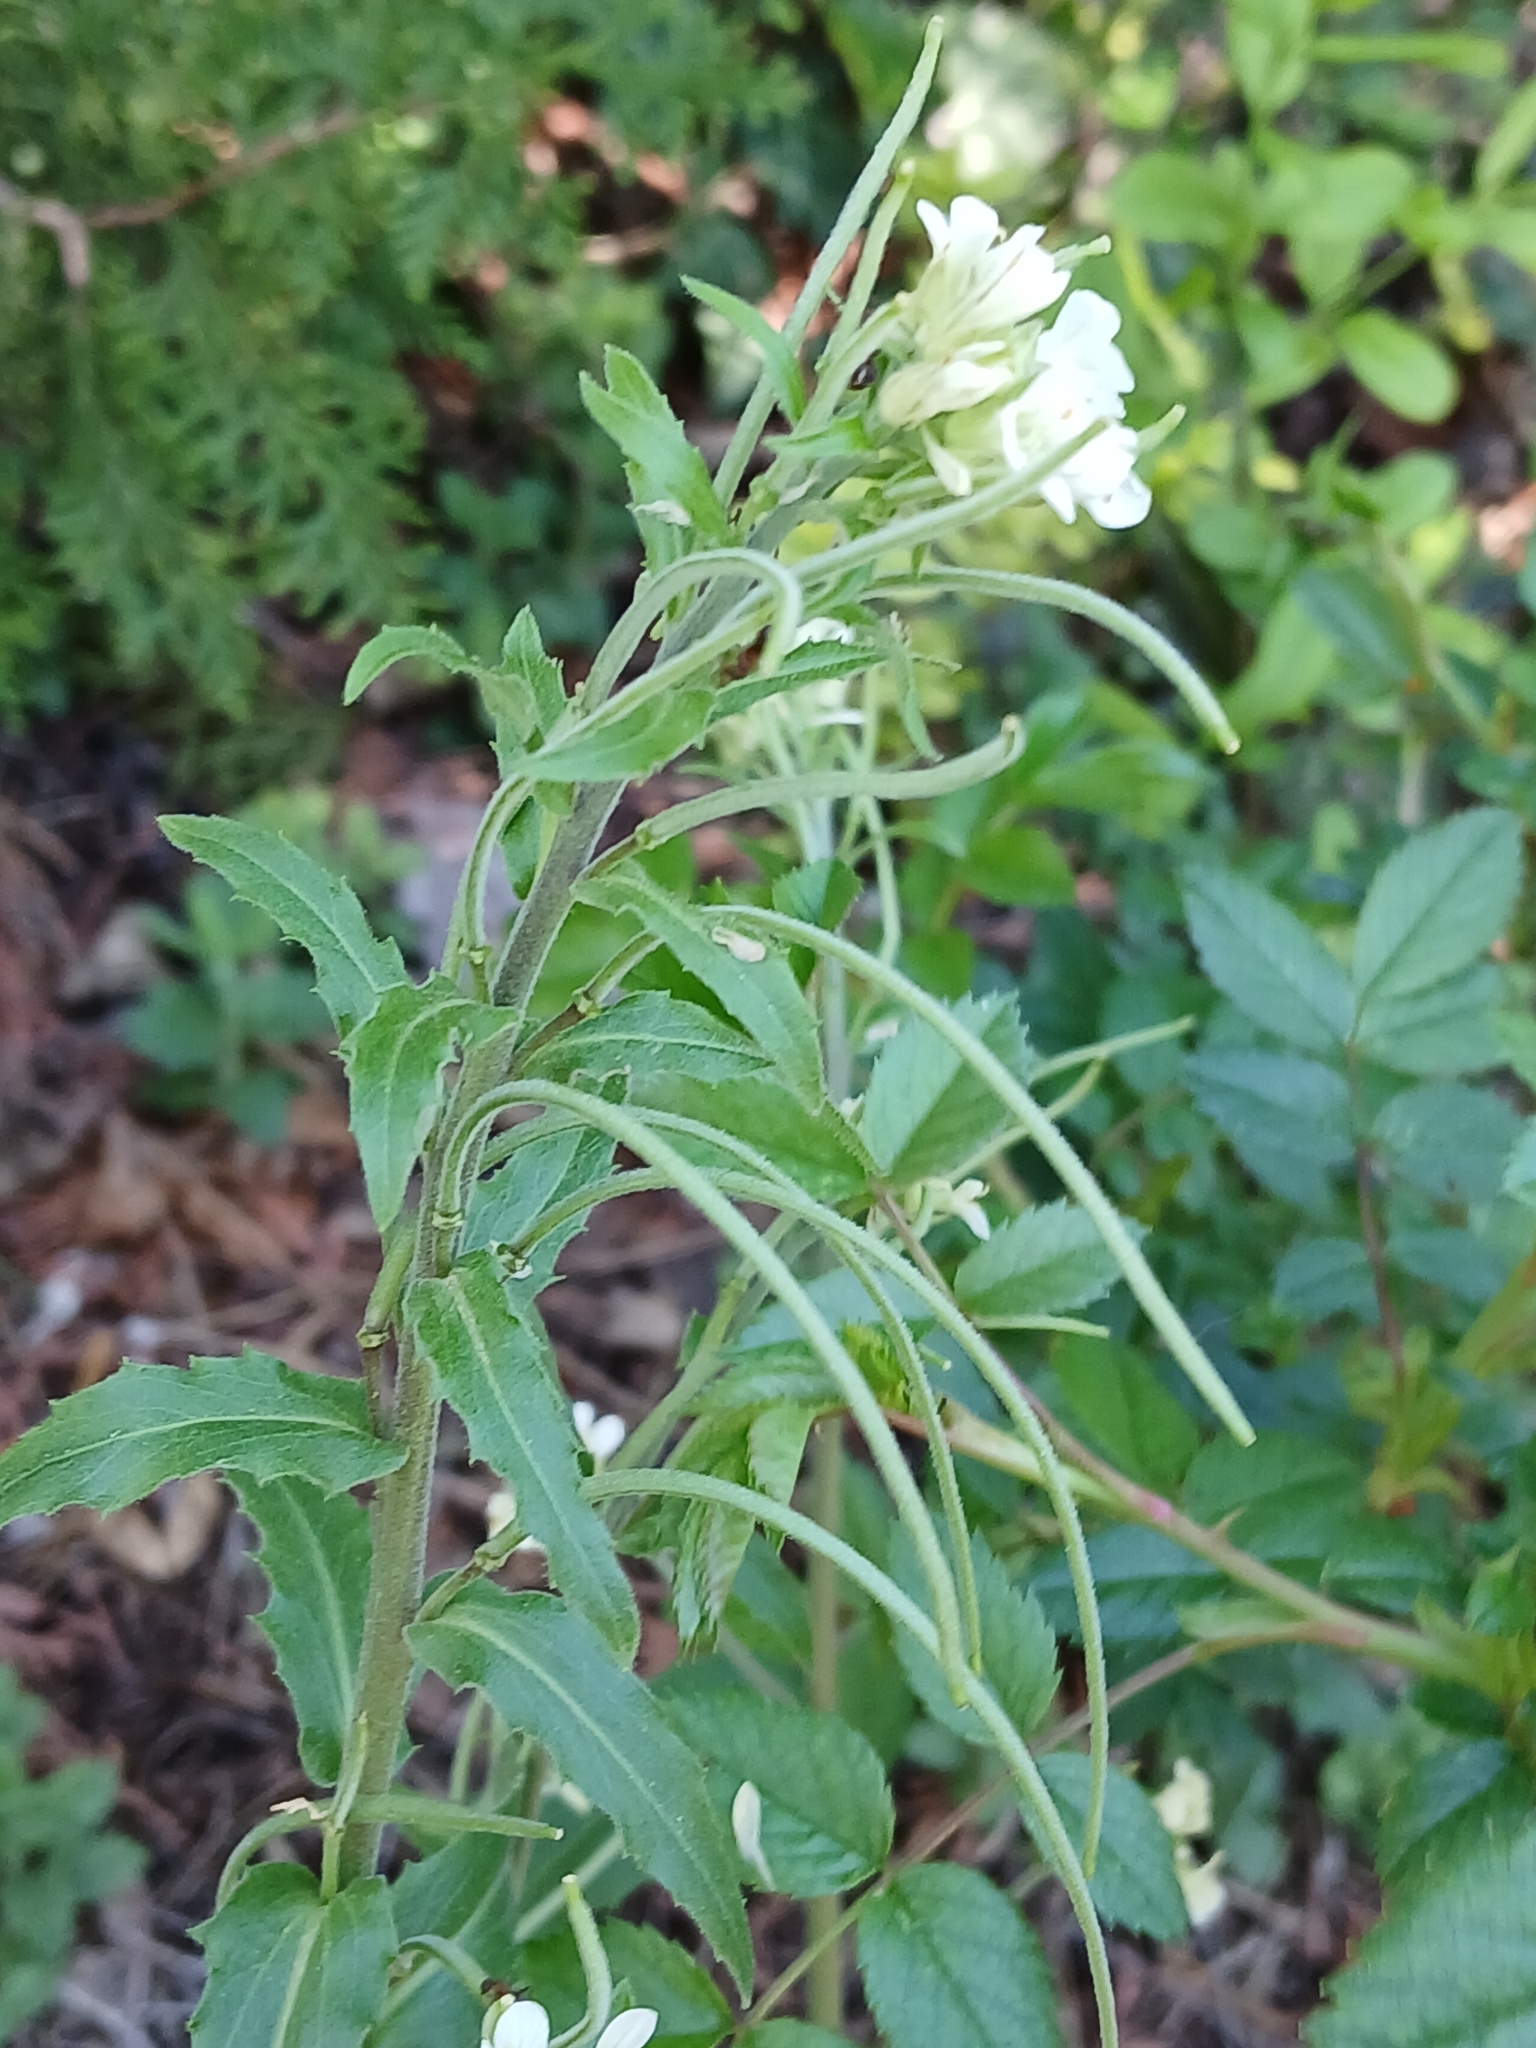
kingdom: Plantae
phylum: Tracheophyta
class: Magnoliopsida
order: Brassicales
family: Brassicaceae
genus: Pseudoturritis
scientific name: Pseudoturritis turrita
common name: Tower cress
